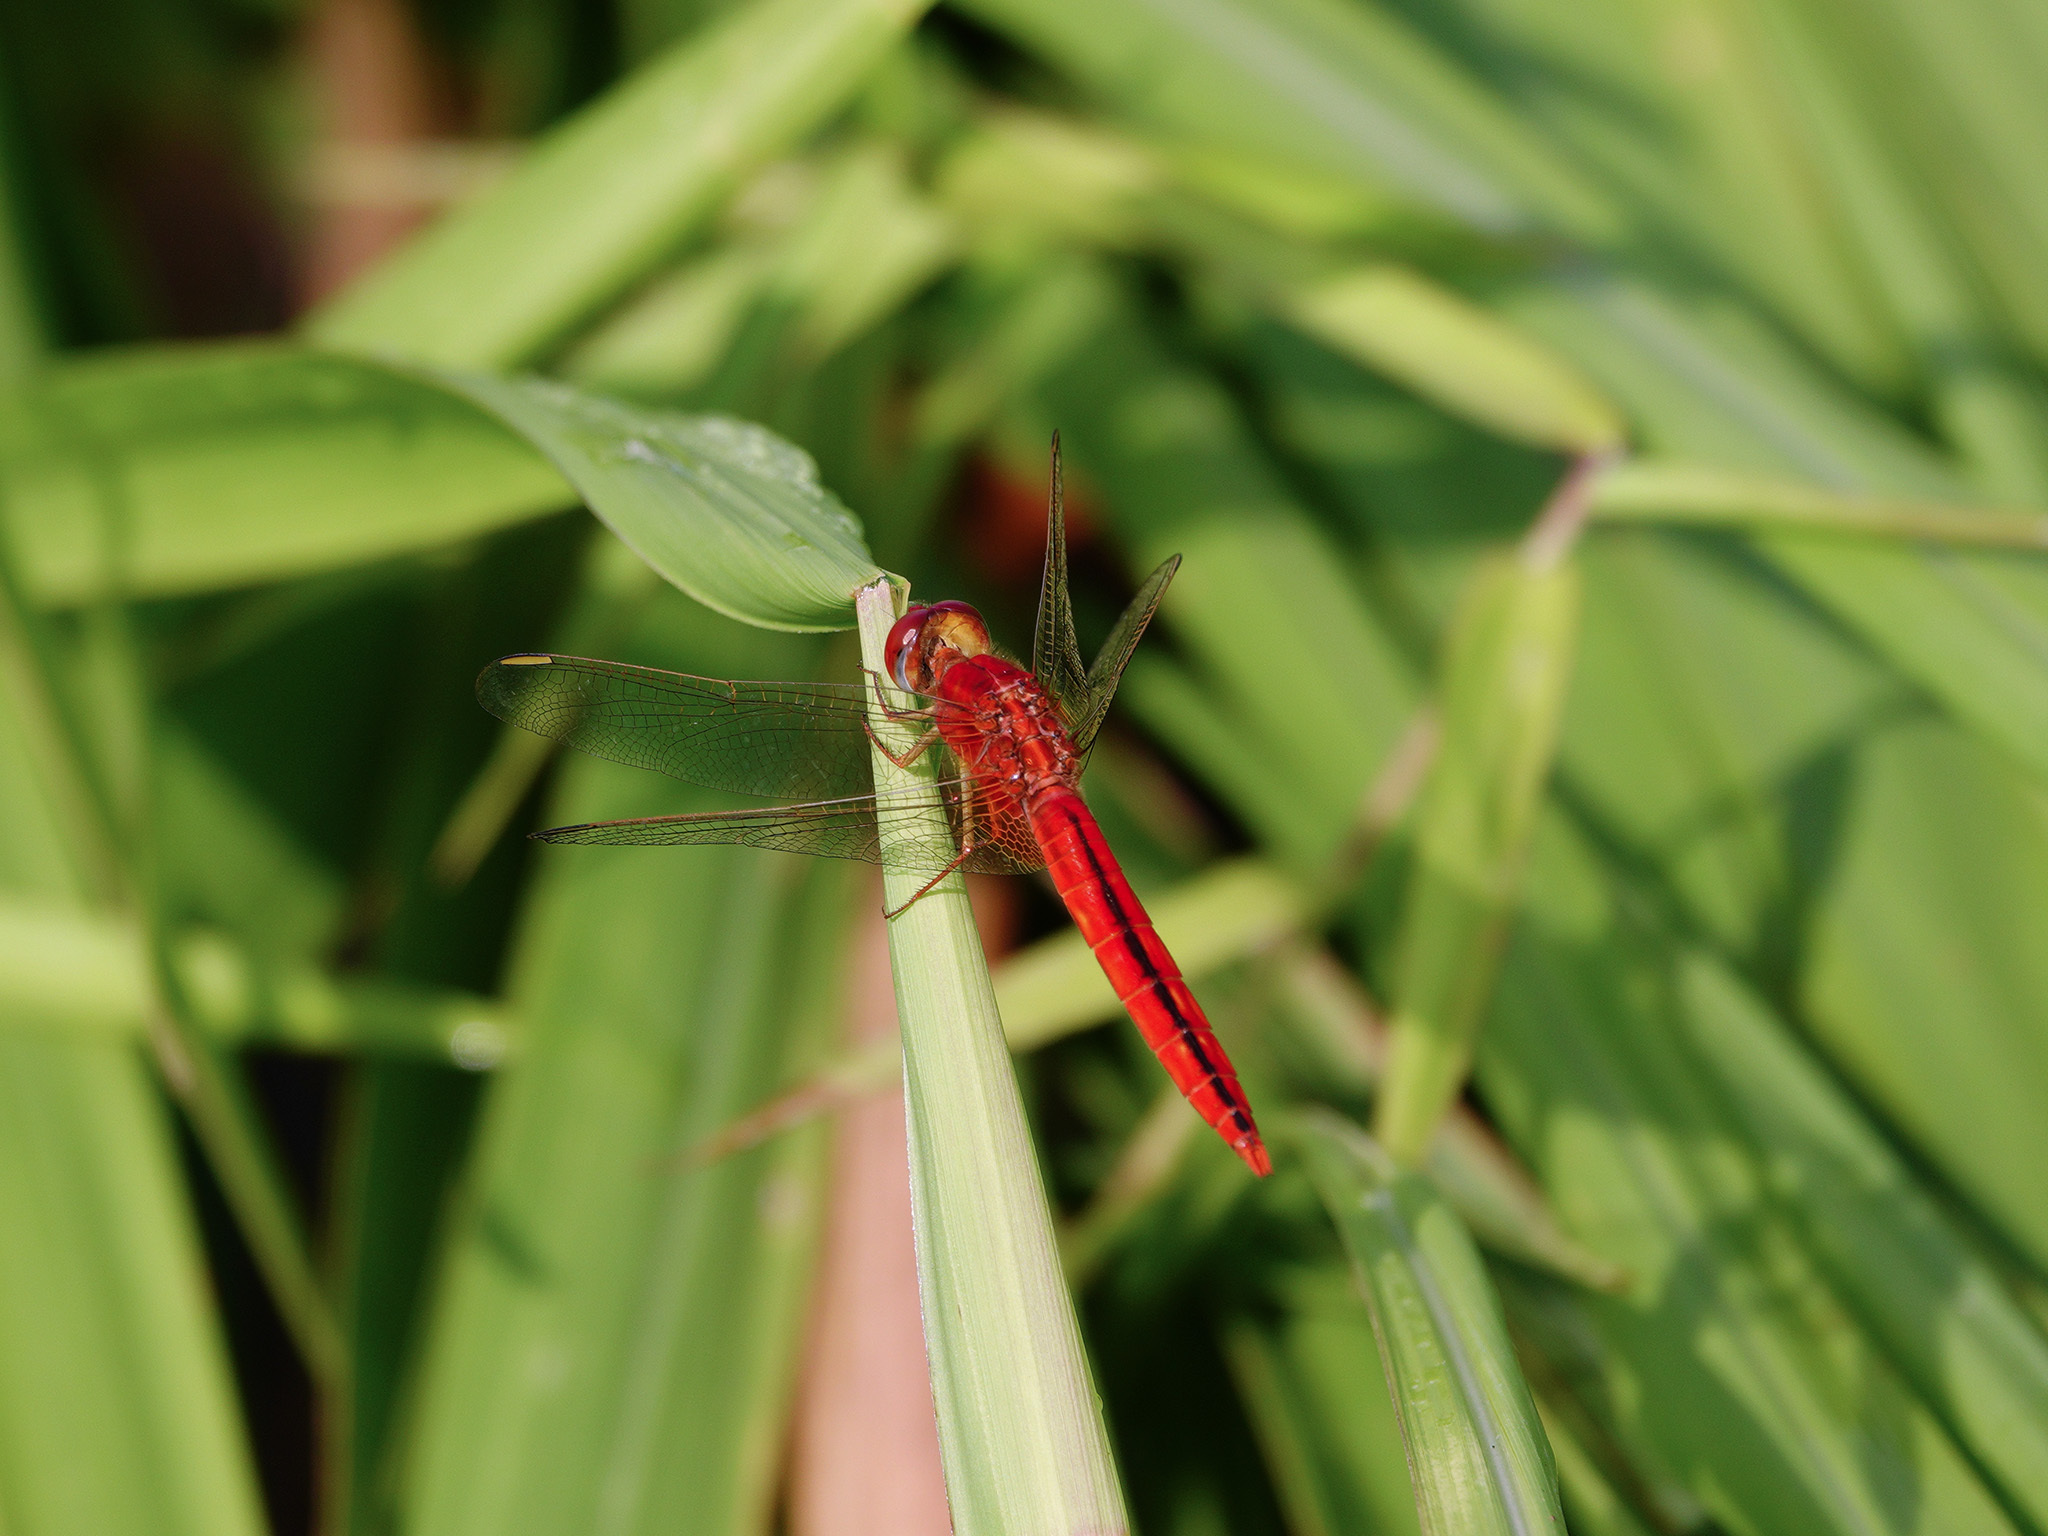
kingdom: Animalia
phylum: Arthropoda
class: Insecta
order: Odonata
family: Libellulidae
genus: Crocothemis
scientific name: Crocothemis servilia
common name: Scarlet skimmer
